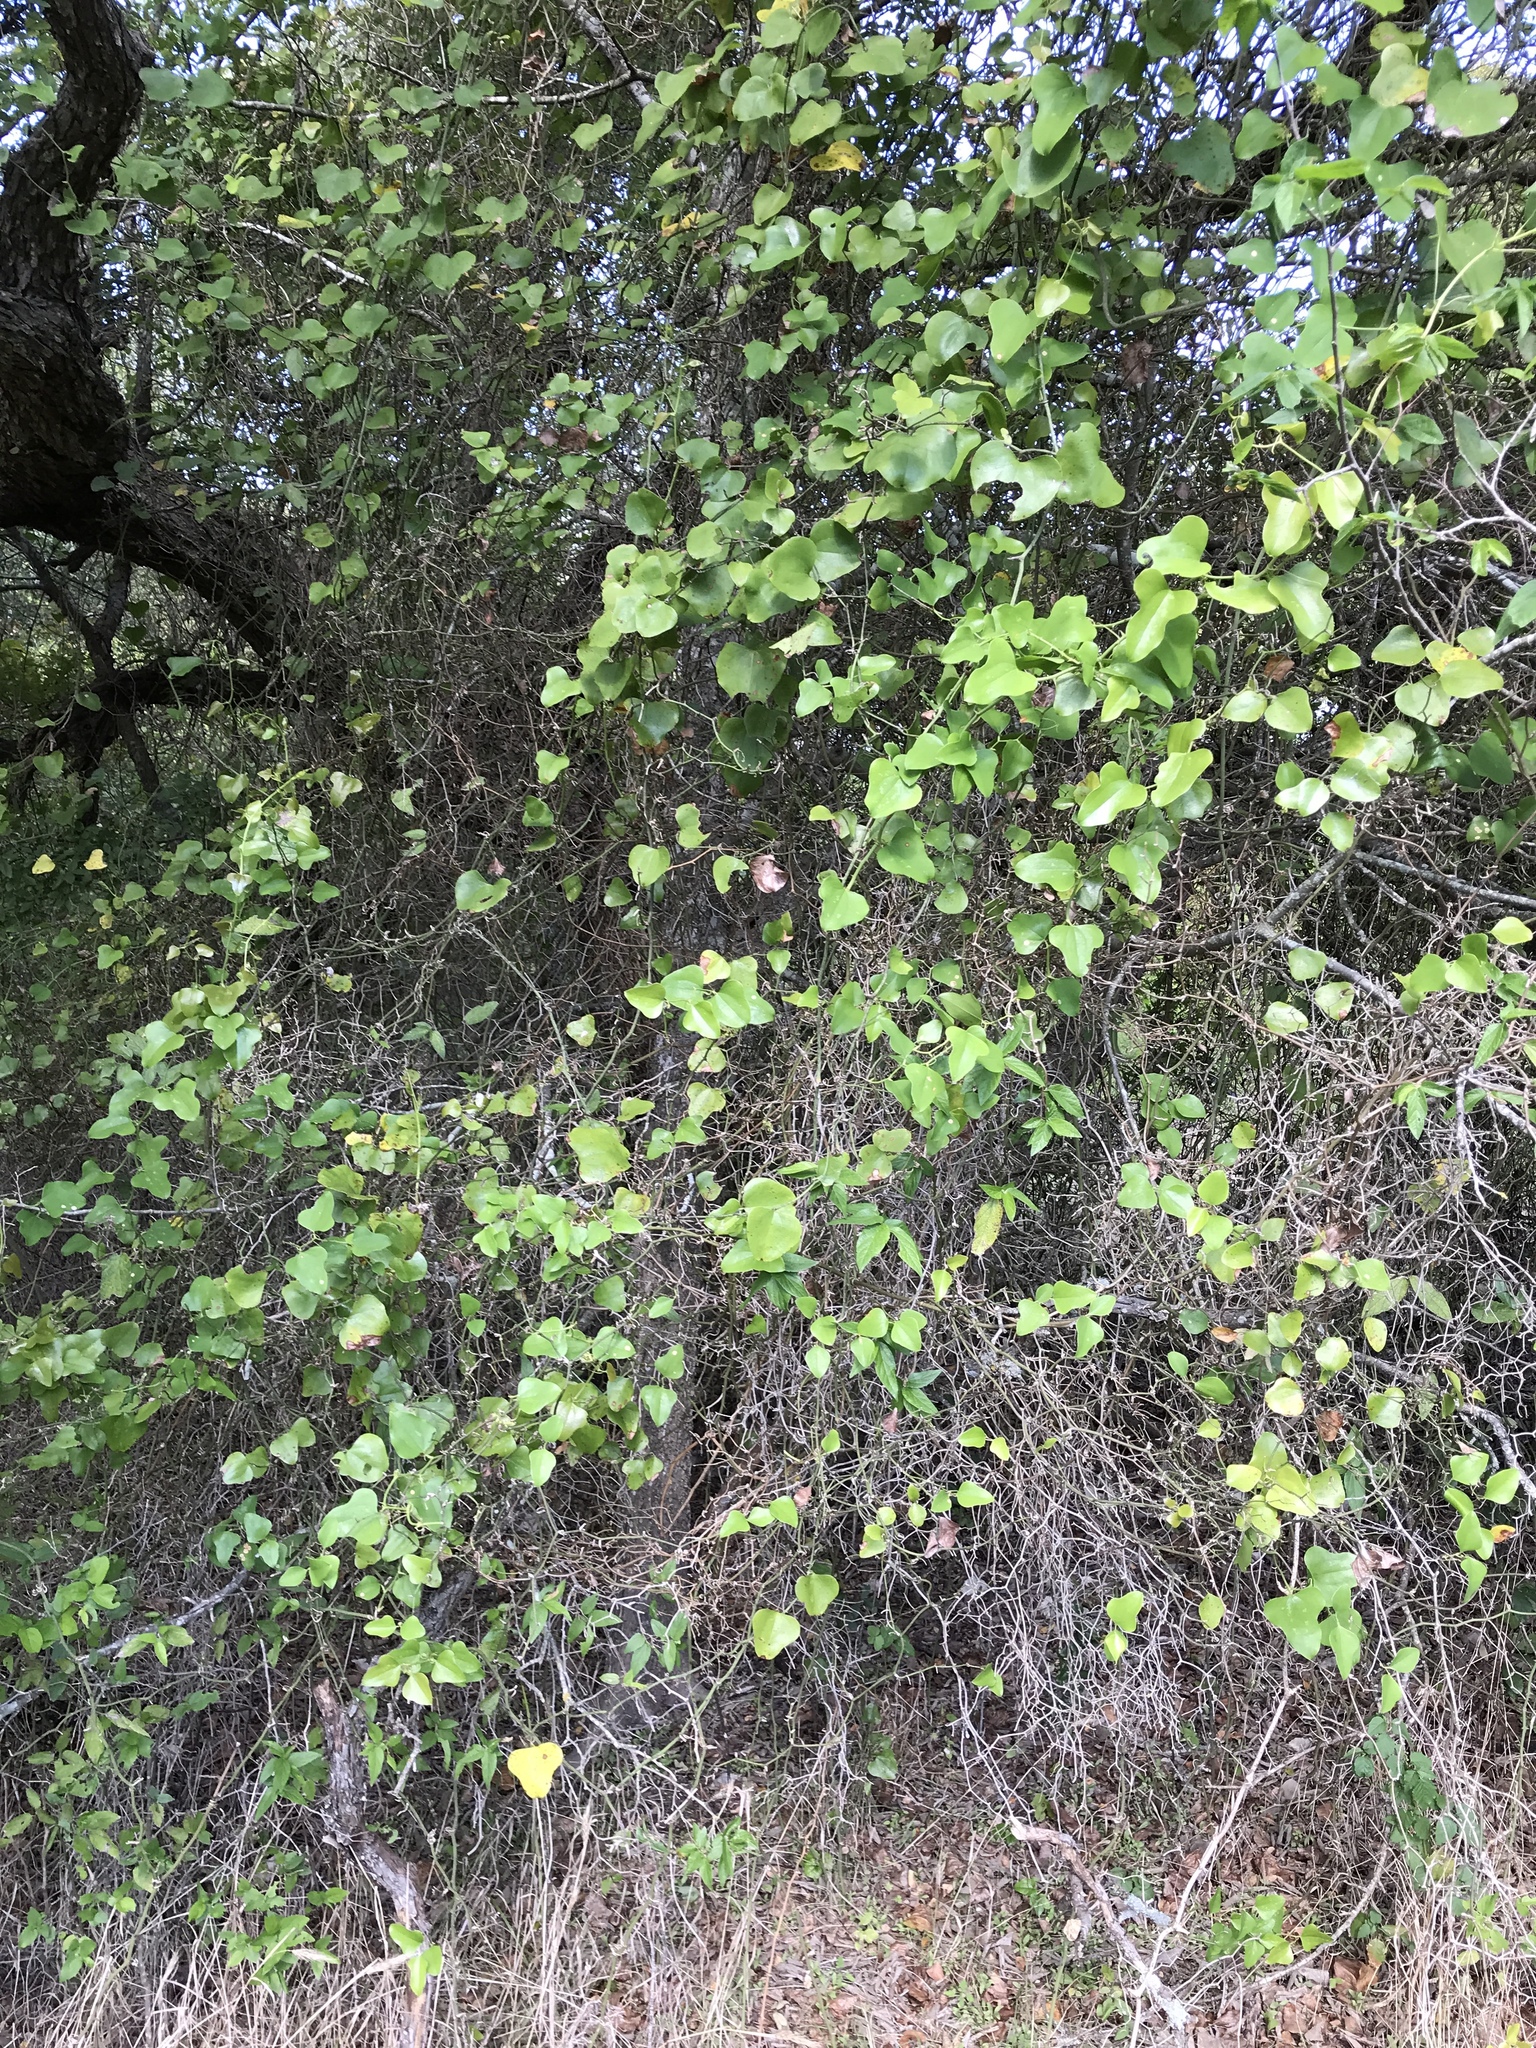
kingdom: Plantae
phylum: Tracheophyta
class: Liliopsida
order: Liliales
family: Smilacaceae
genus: Smilax
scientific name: Smilax bona-nox
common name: Catbrier
